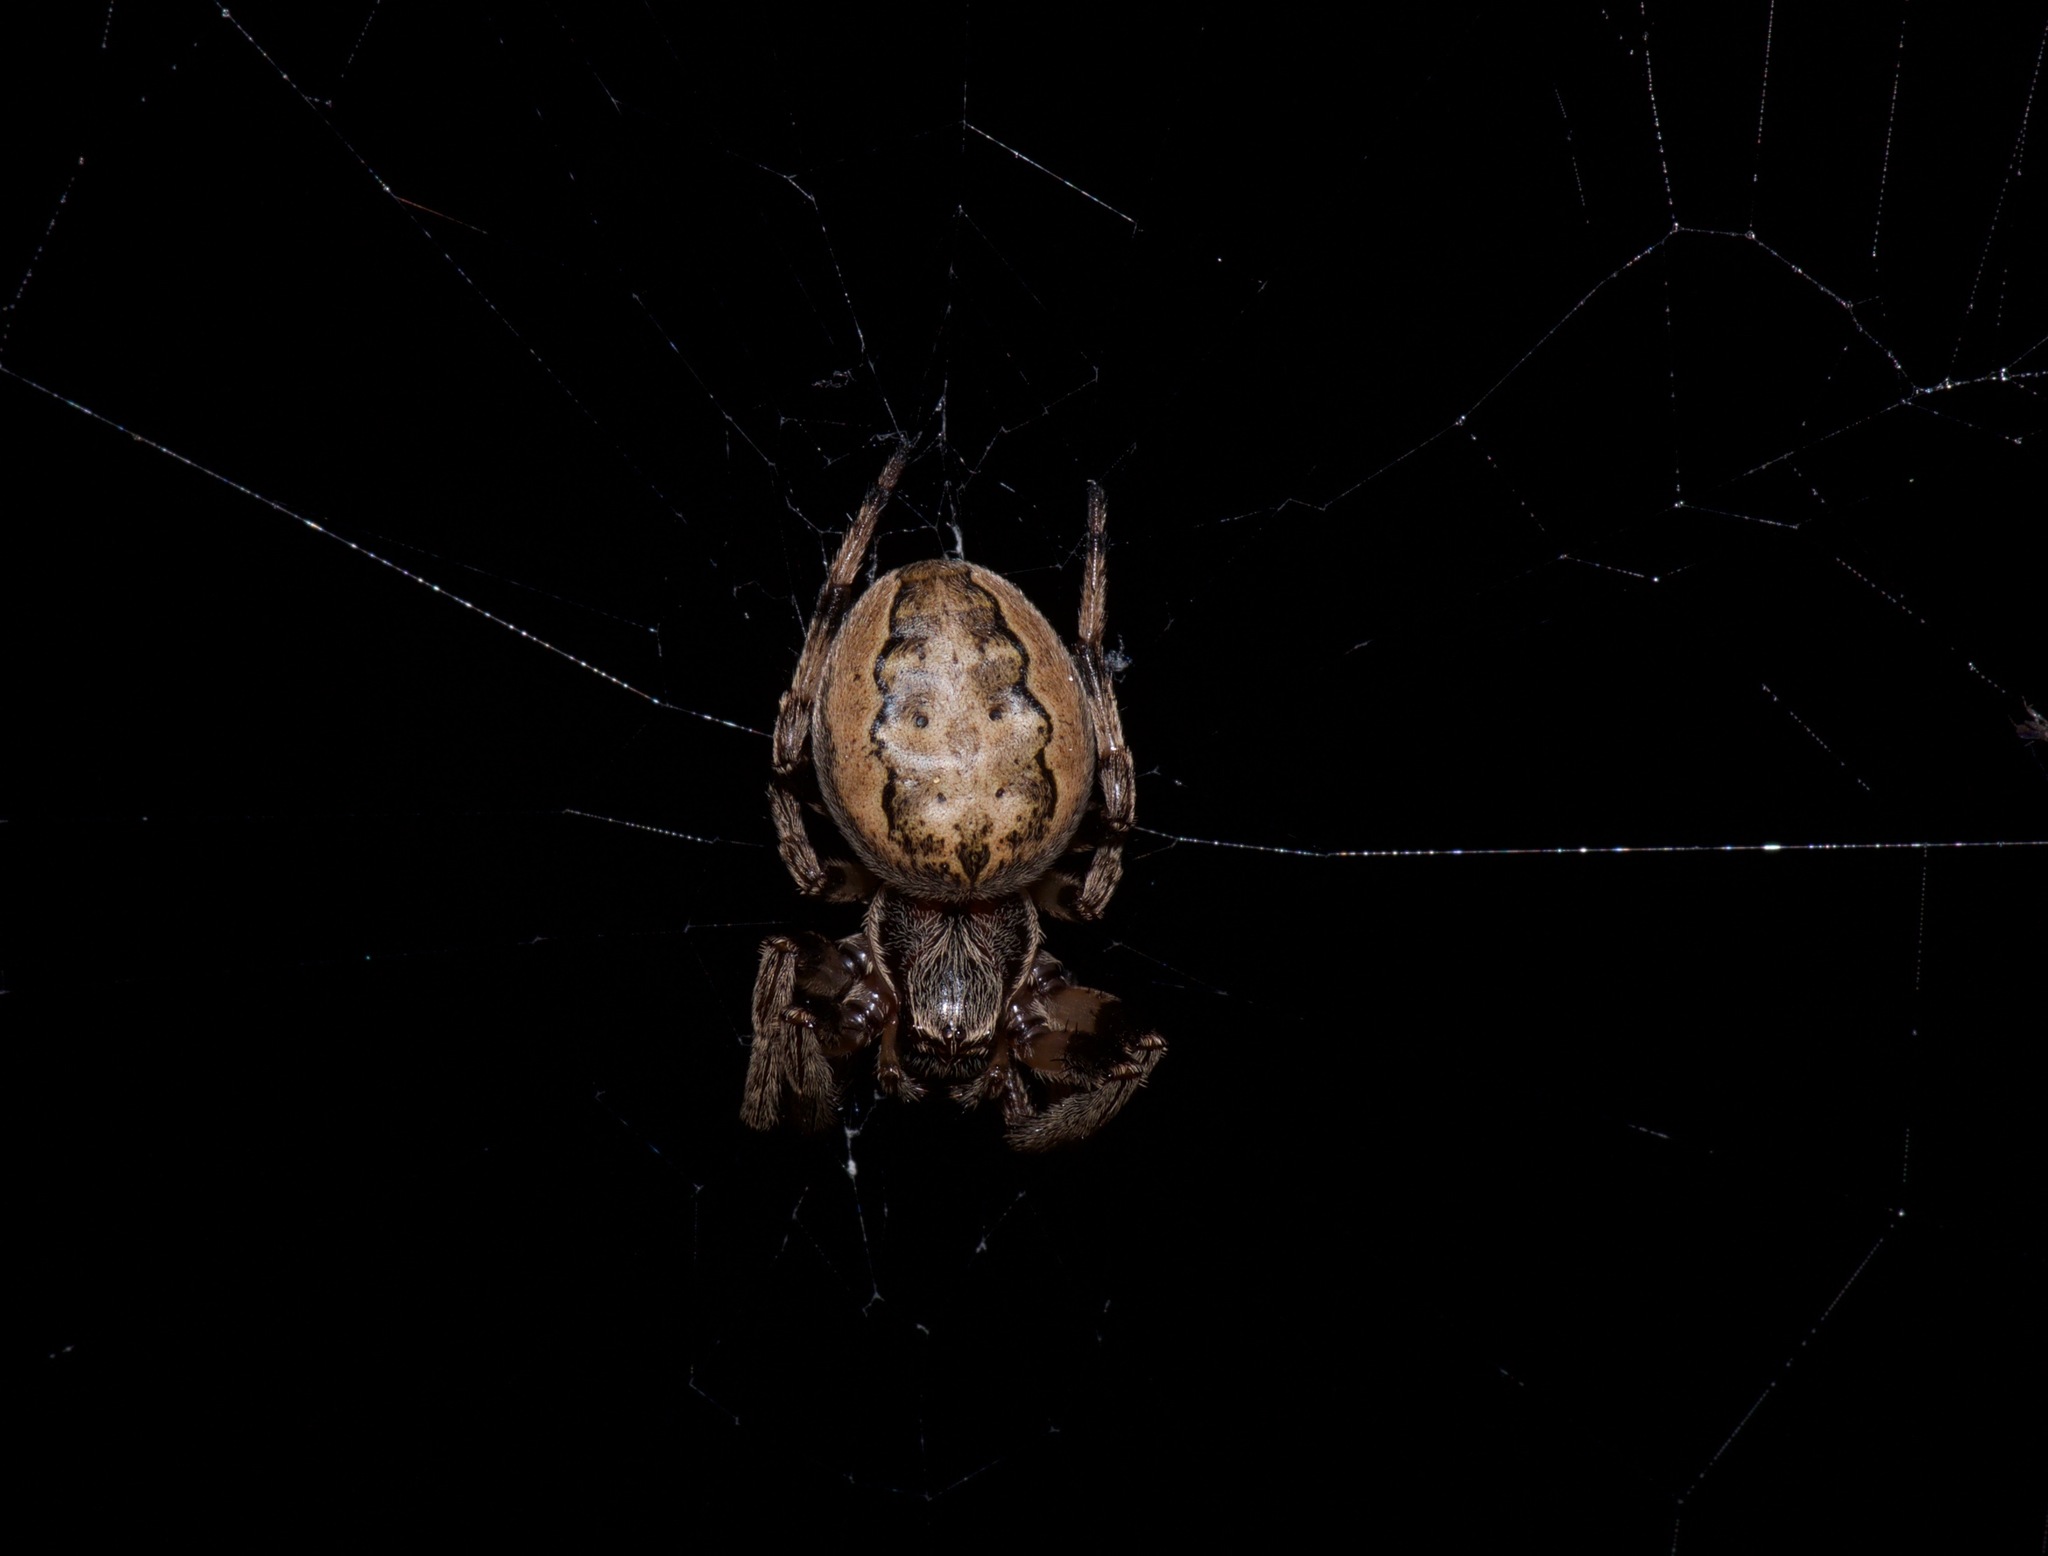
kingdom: Animalia
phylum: Arthropoda
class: Arachnida
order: Araneae
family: Araneidae
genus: Larinioides
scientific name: Larinioides cornutus
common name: Furrow orbweaver
